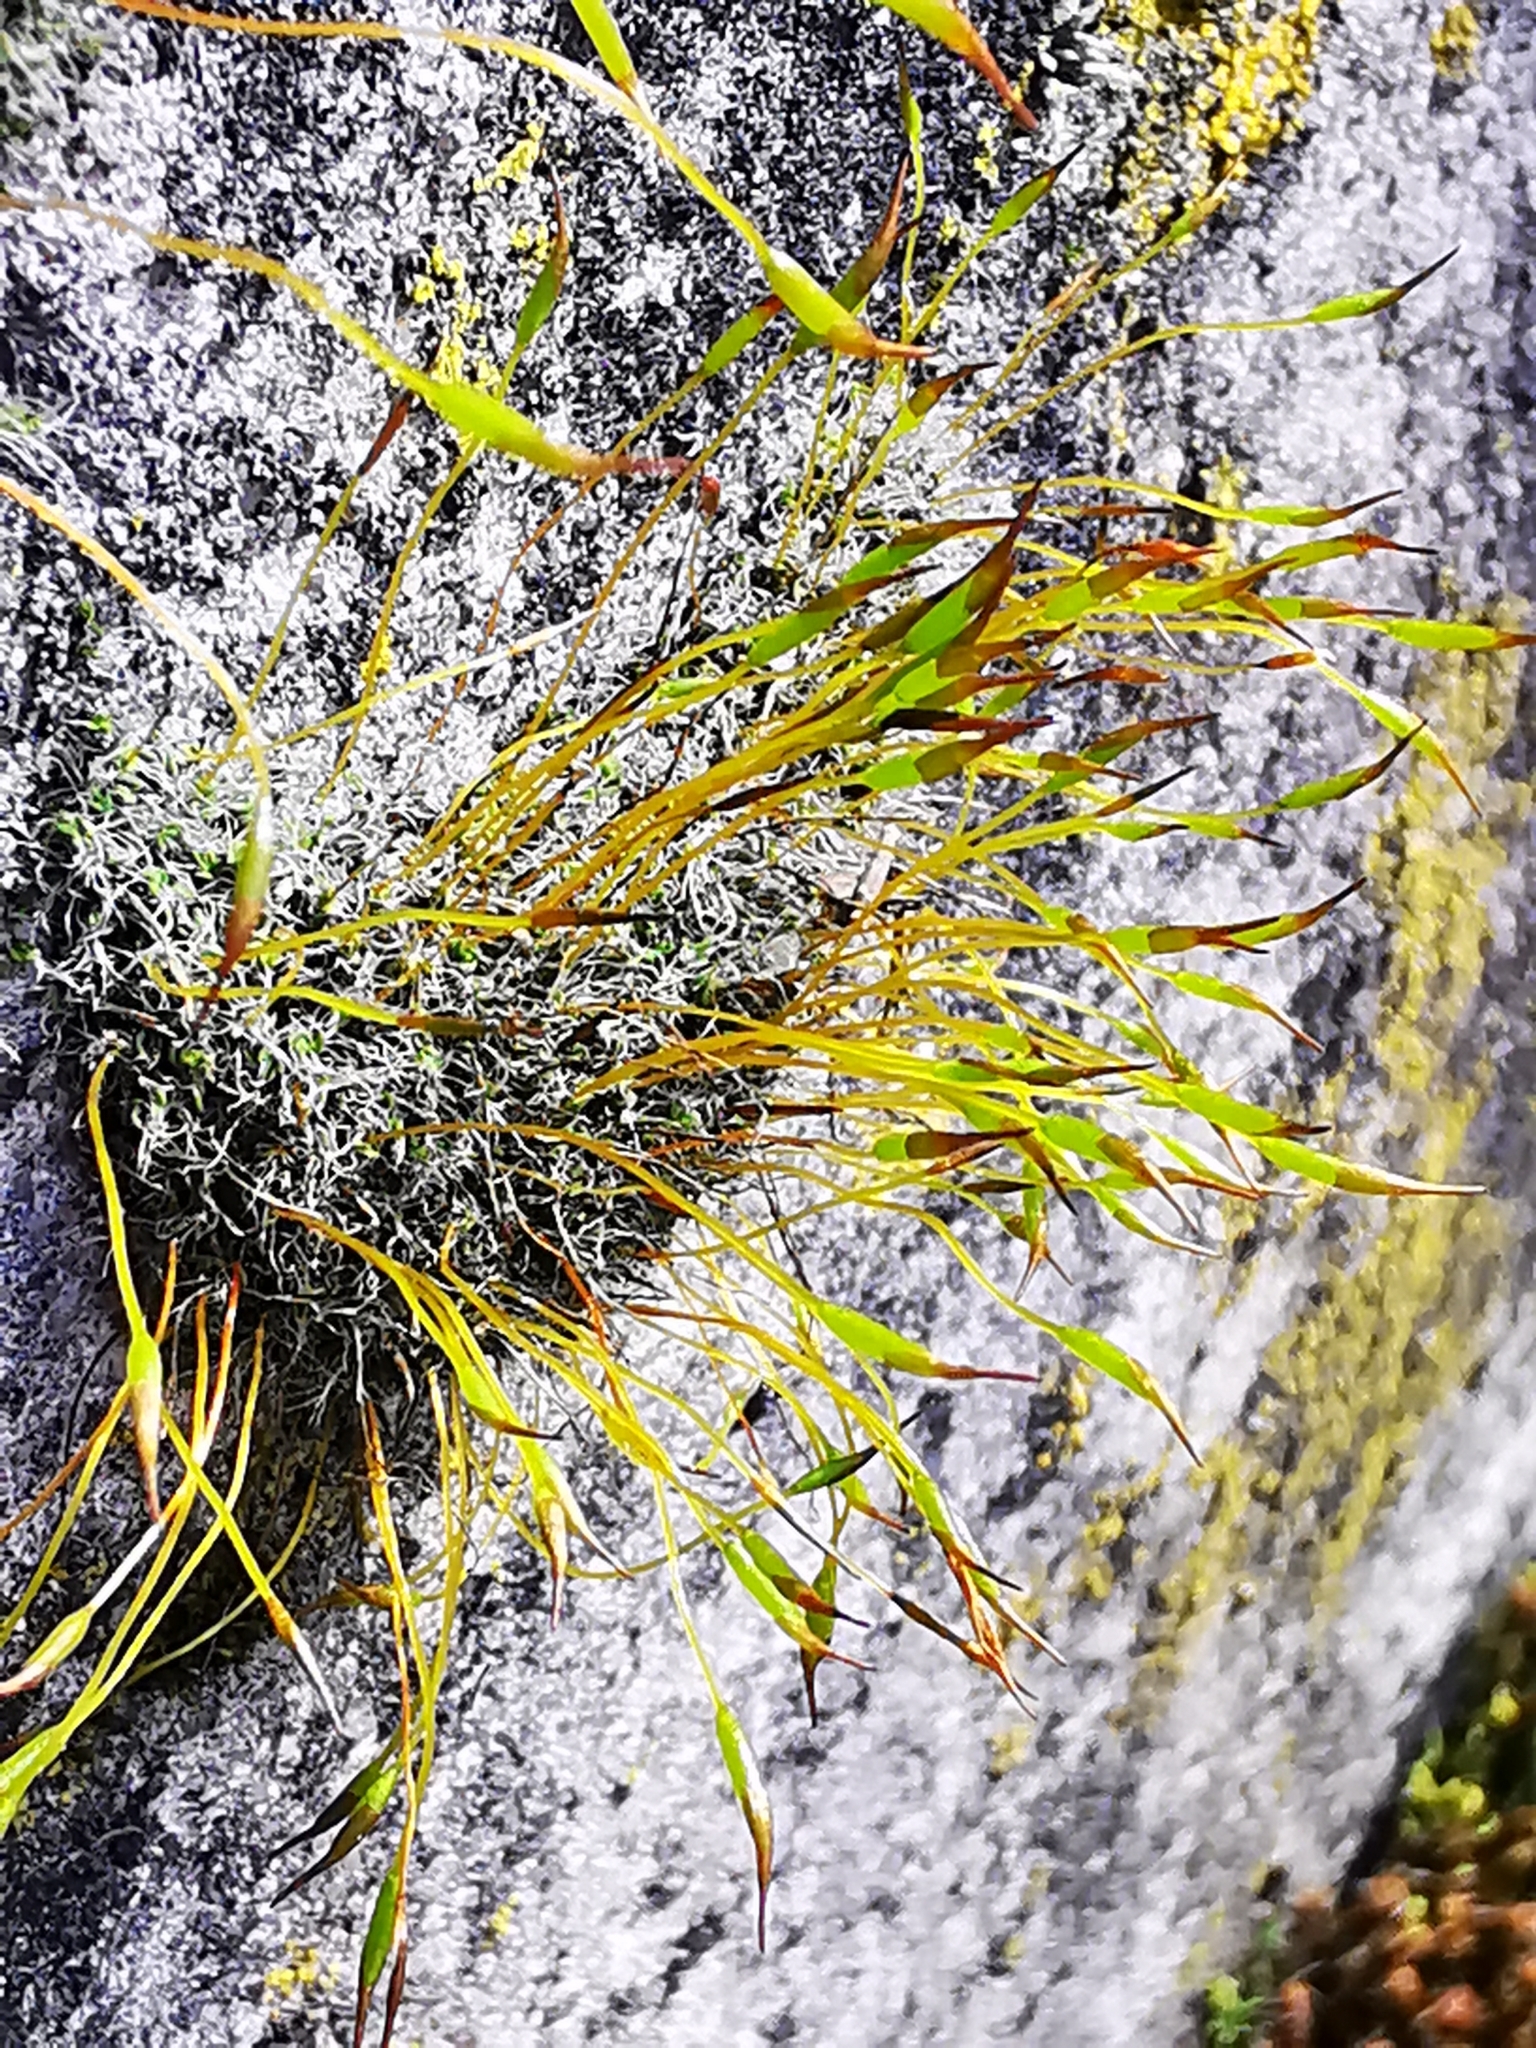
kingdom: Plantae
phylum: Bryophyta
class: Bryopsida
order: Pottiales
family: Pottiaceae
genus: Tortula
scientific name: Tortula muralis
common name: Wall screw-moss
